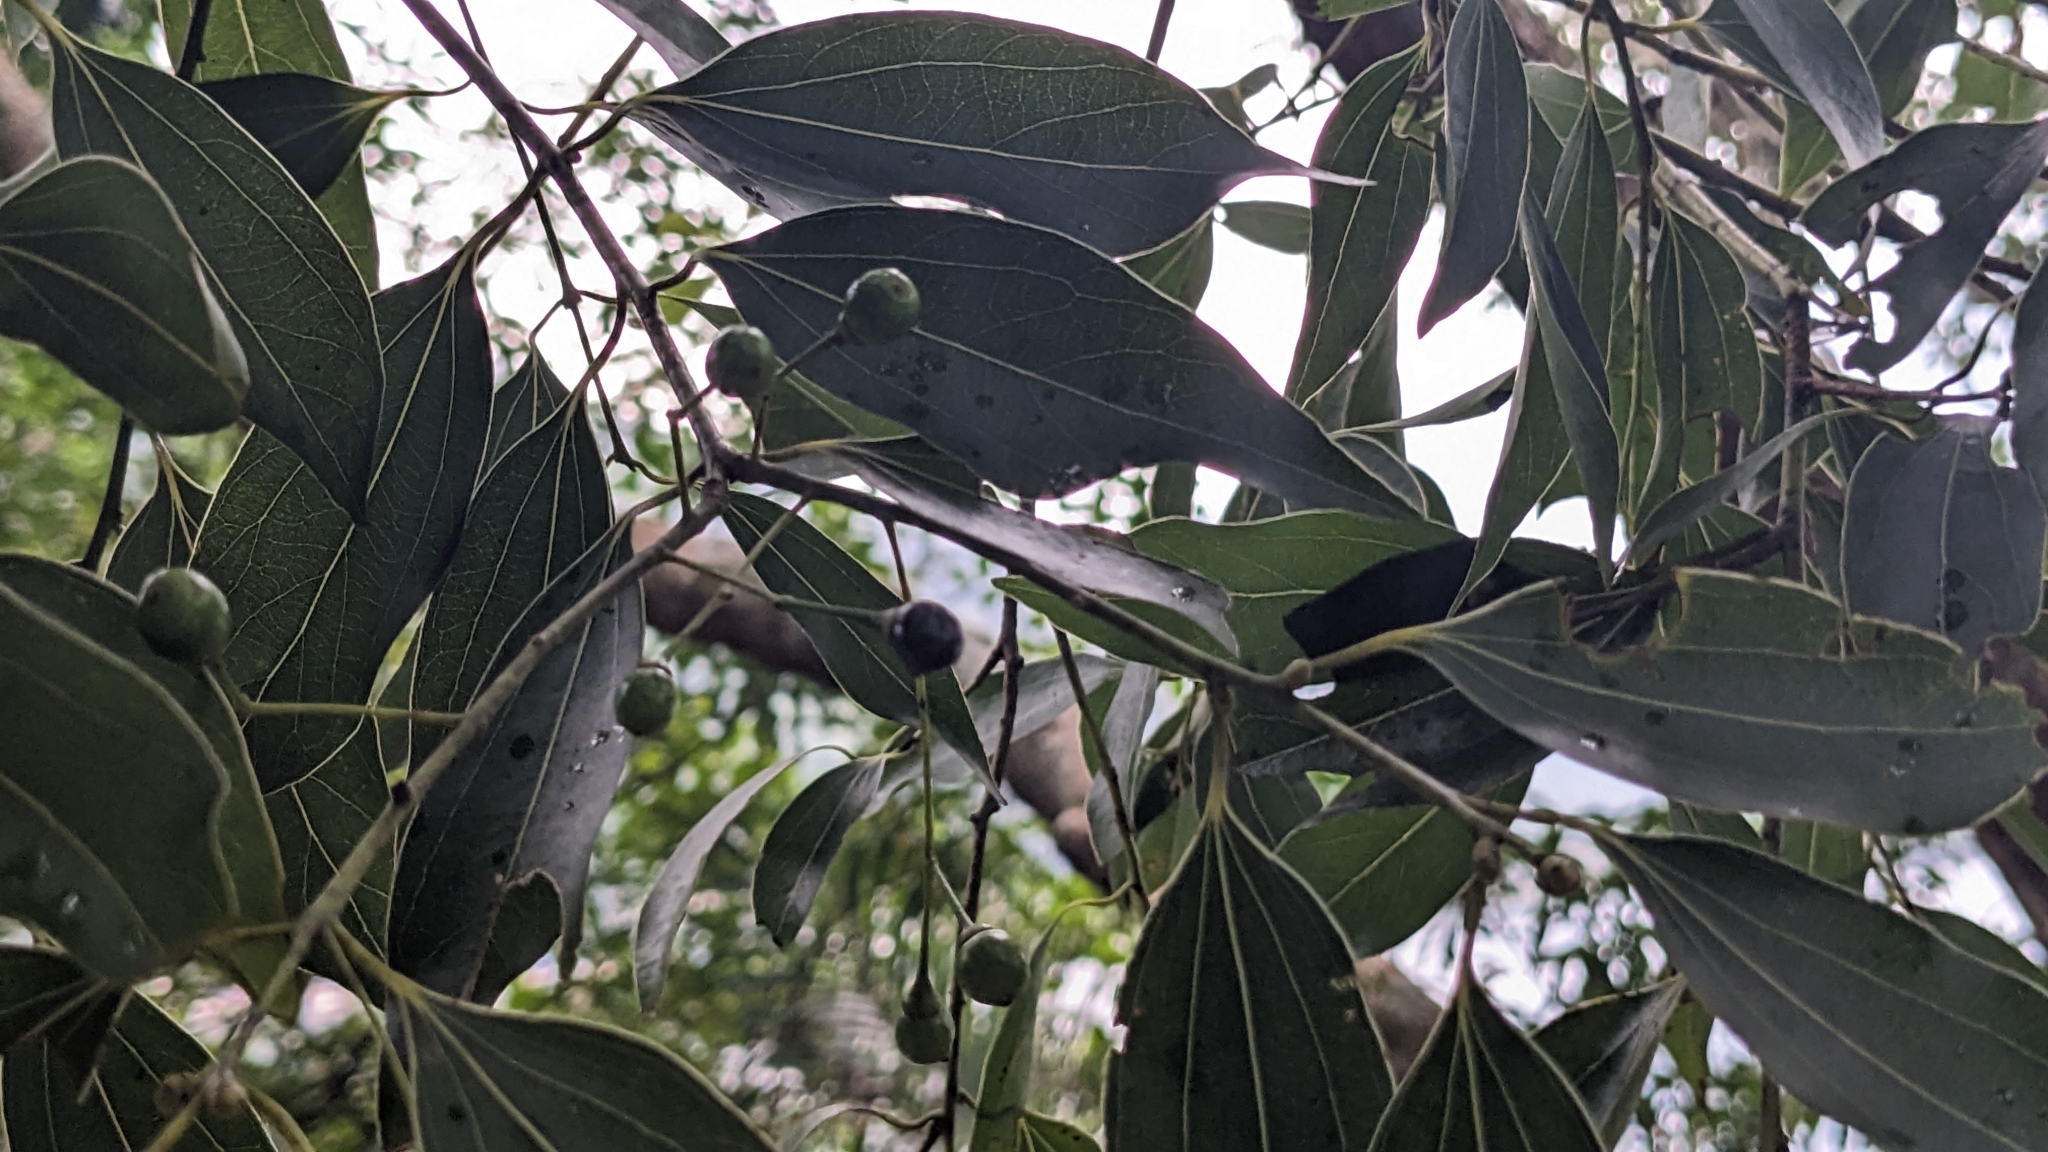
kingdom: Plantae
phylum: Tracheophyta
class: Magnoliopsida
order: Laurales
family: Lauraceae
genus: Cinnamomum
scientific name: Cinnamomum chekiangense
